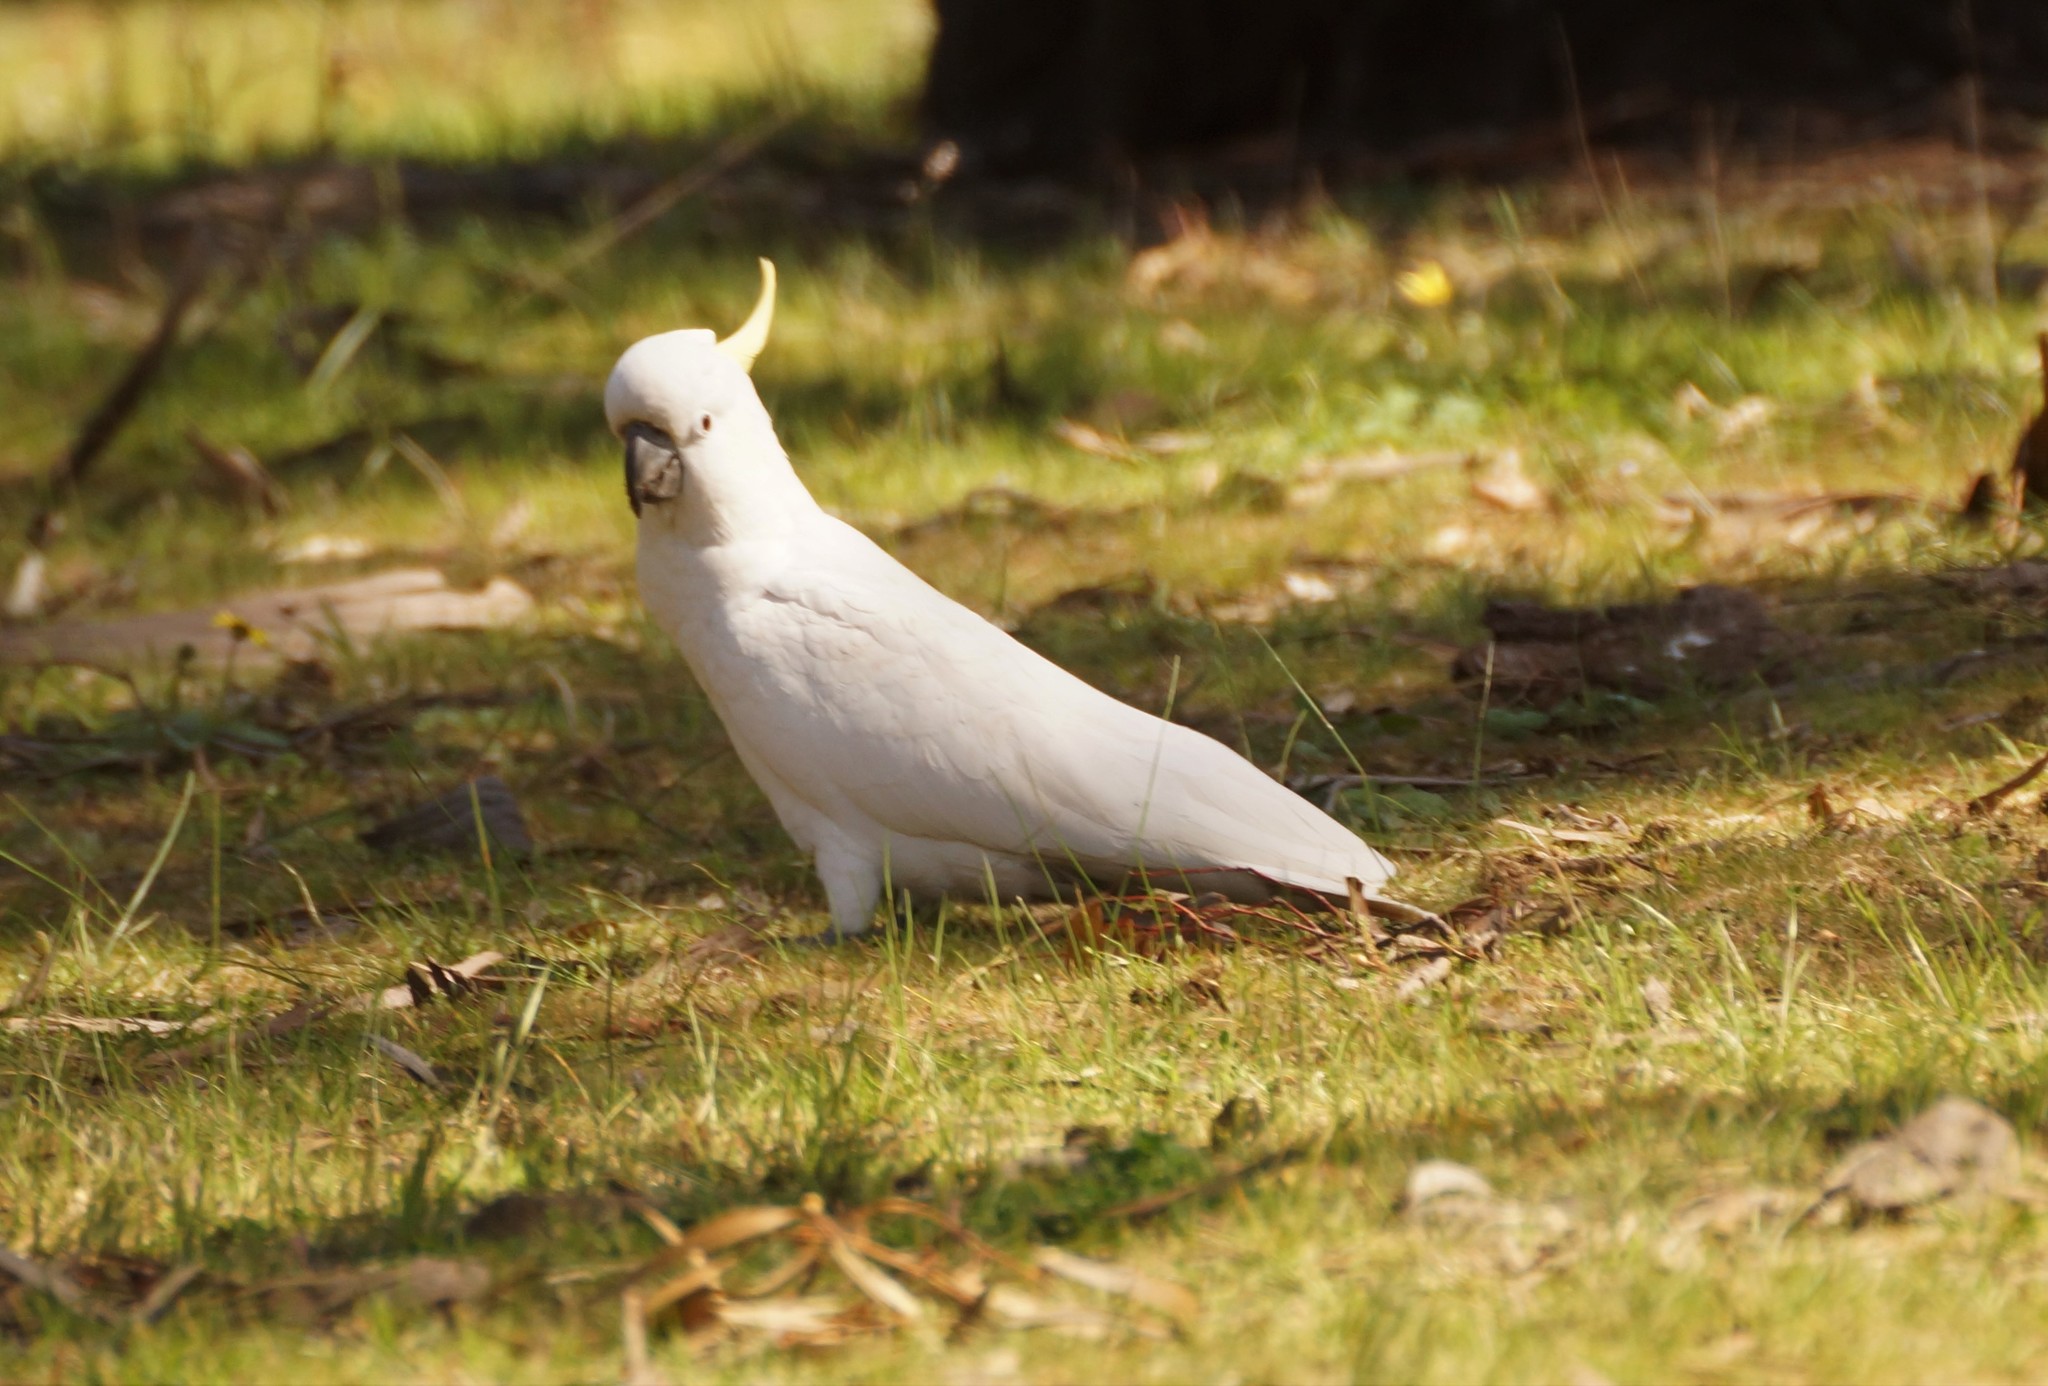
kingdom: Animalia
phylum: Chordata
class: Aves
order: Psittaciformes
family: Psittacidae
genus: Cacatua
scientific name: Cacatua galerita
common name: Sulphur-crested cockatoo
